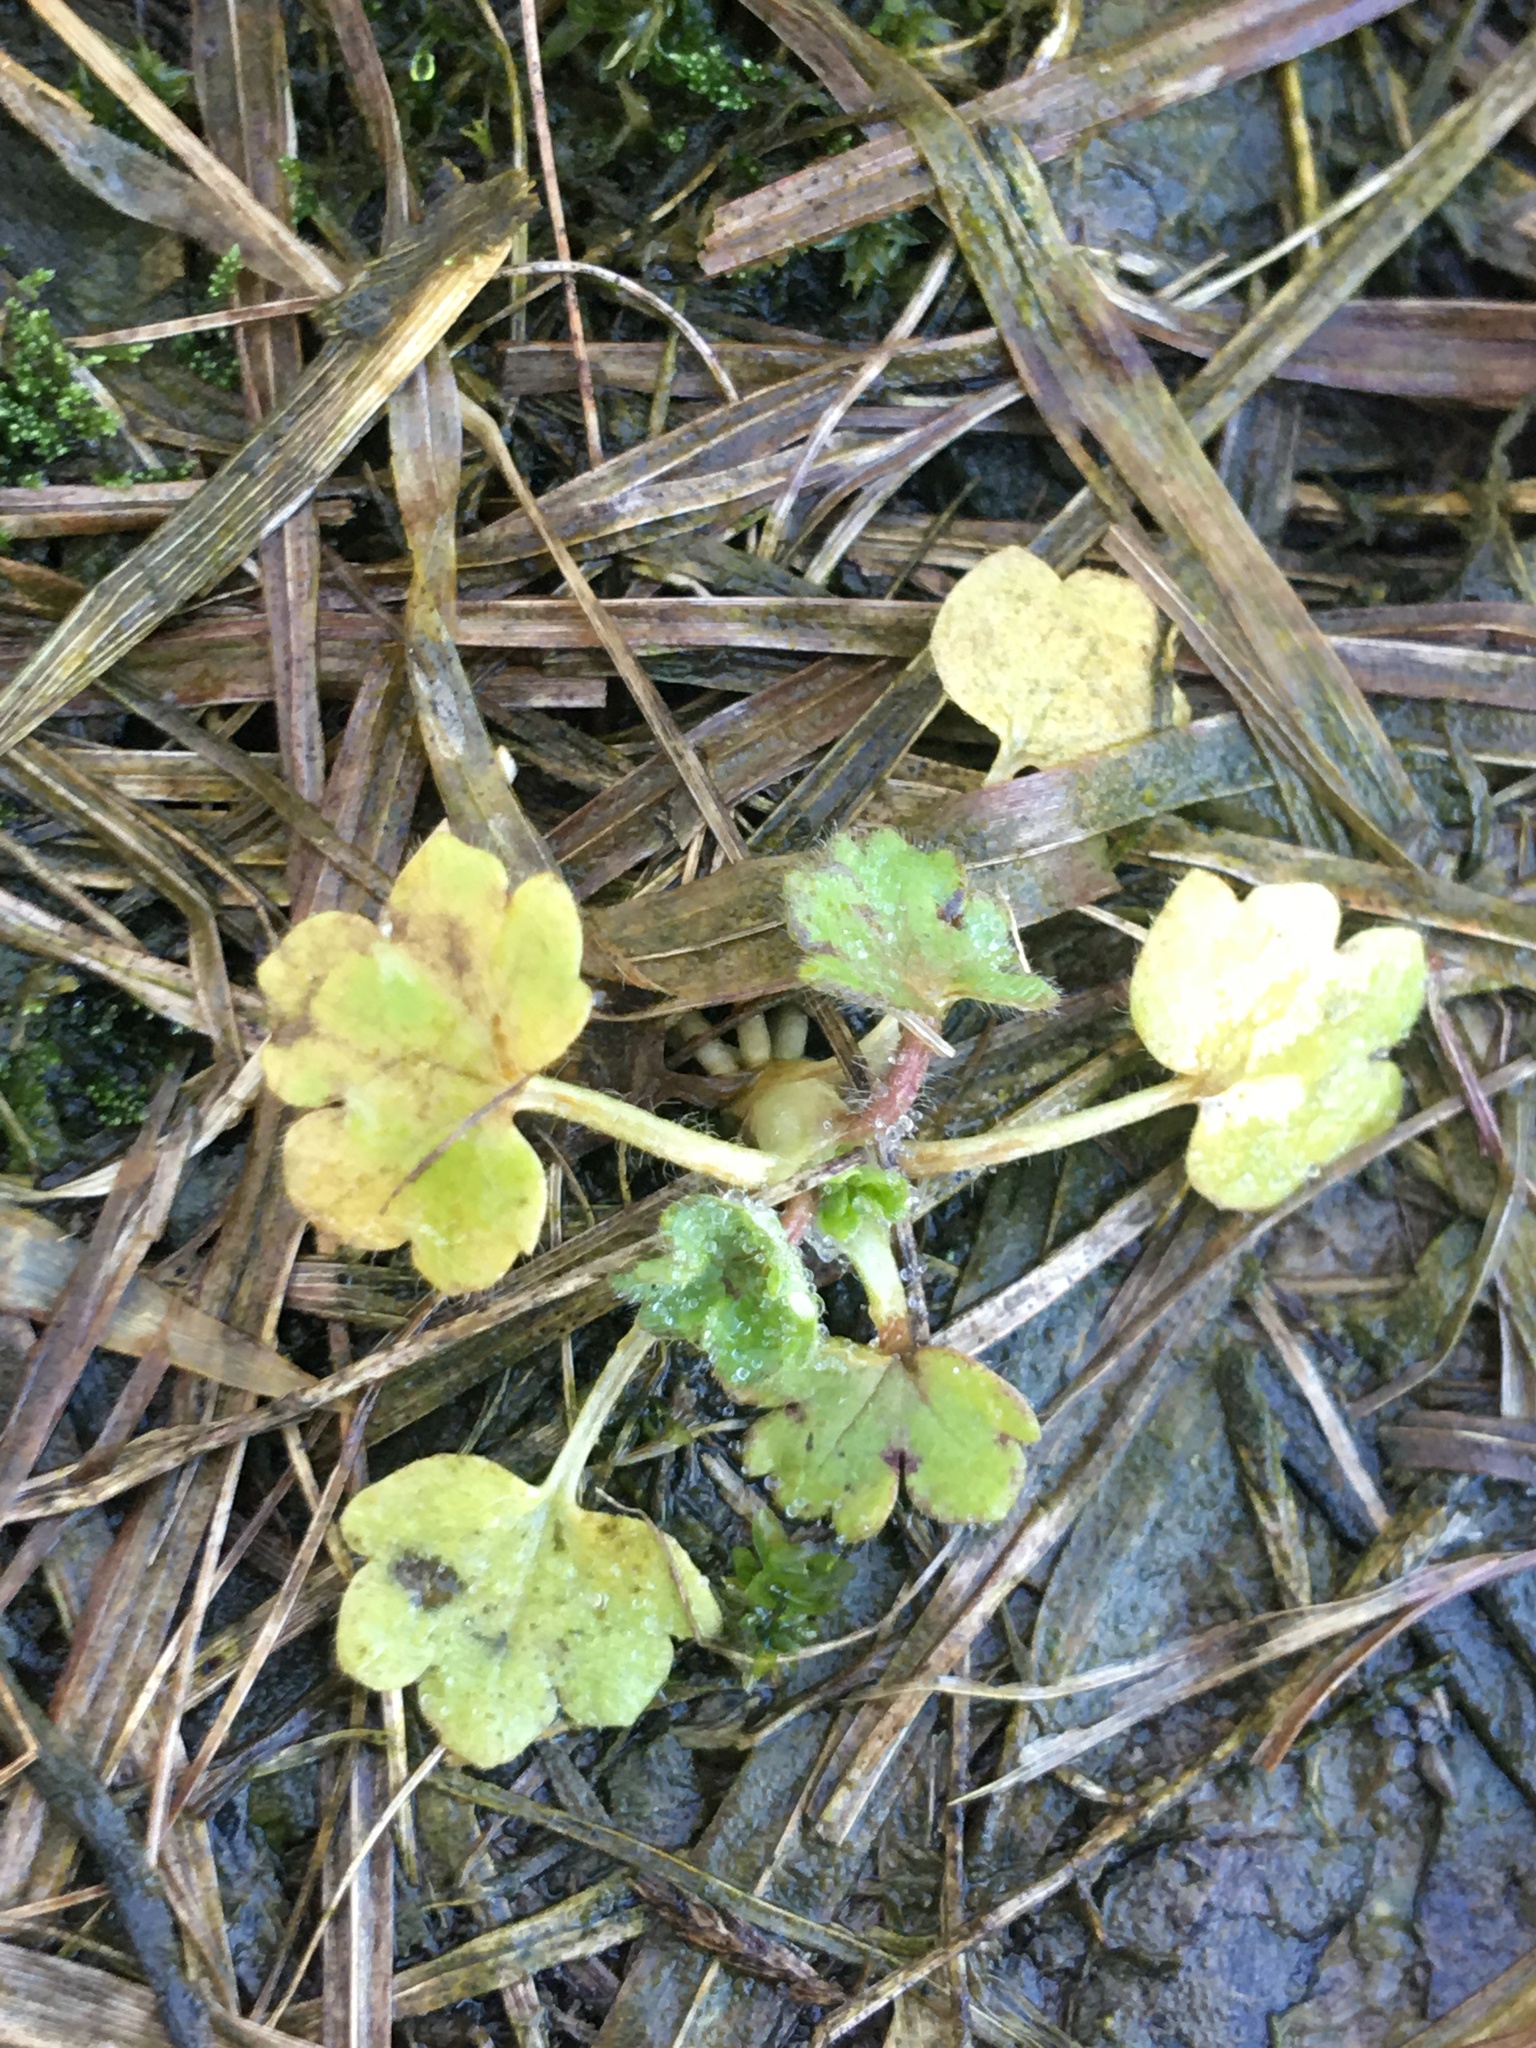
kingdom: Plantae
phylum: Tracheophyta
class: Magnoliopsida
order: Ranunculales
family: Ranunculaceae
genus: Ranunculus
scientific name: Ranunculus parviflorus
